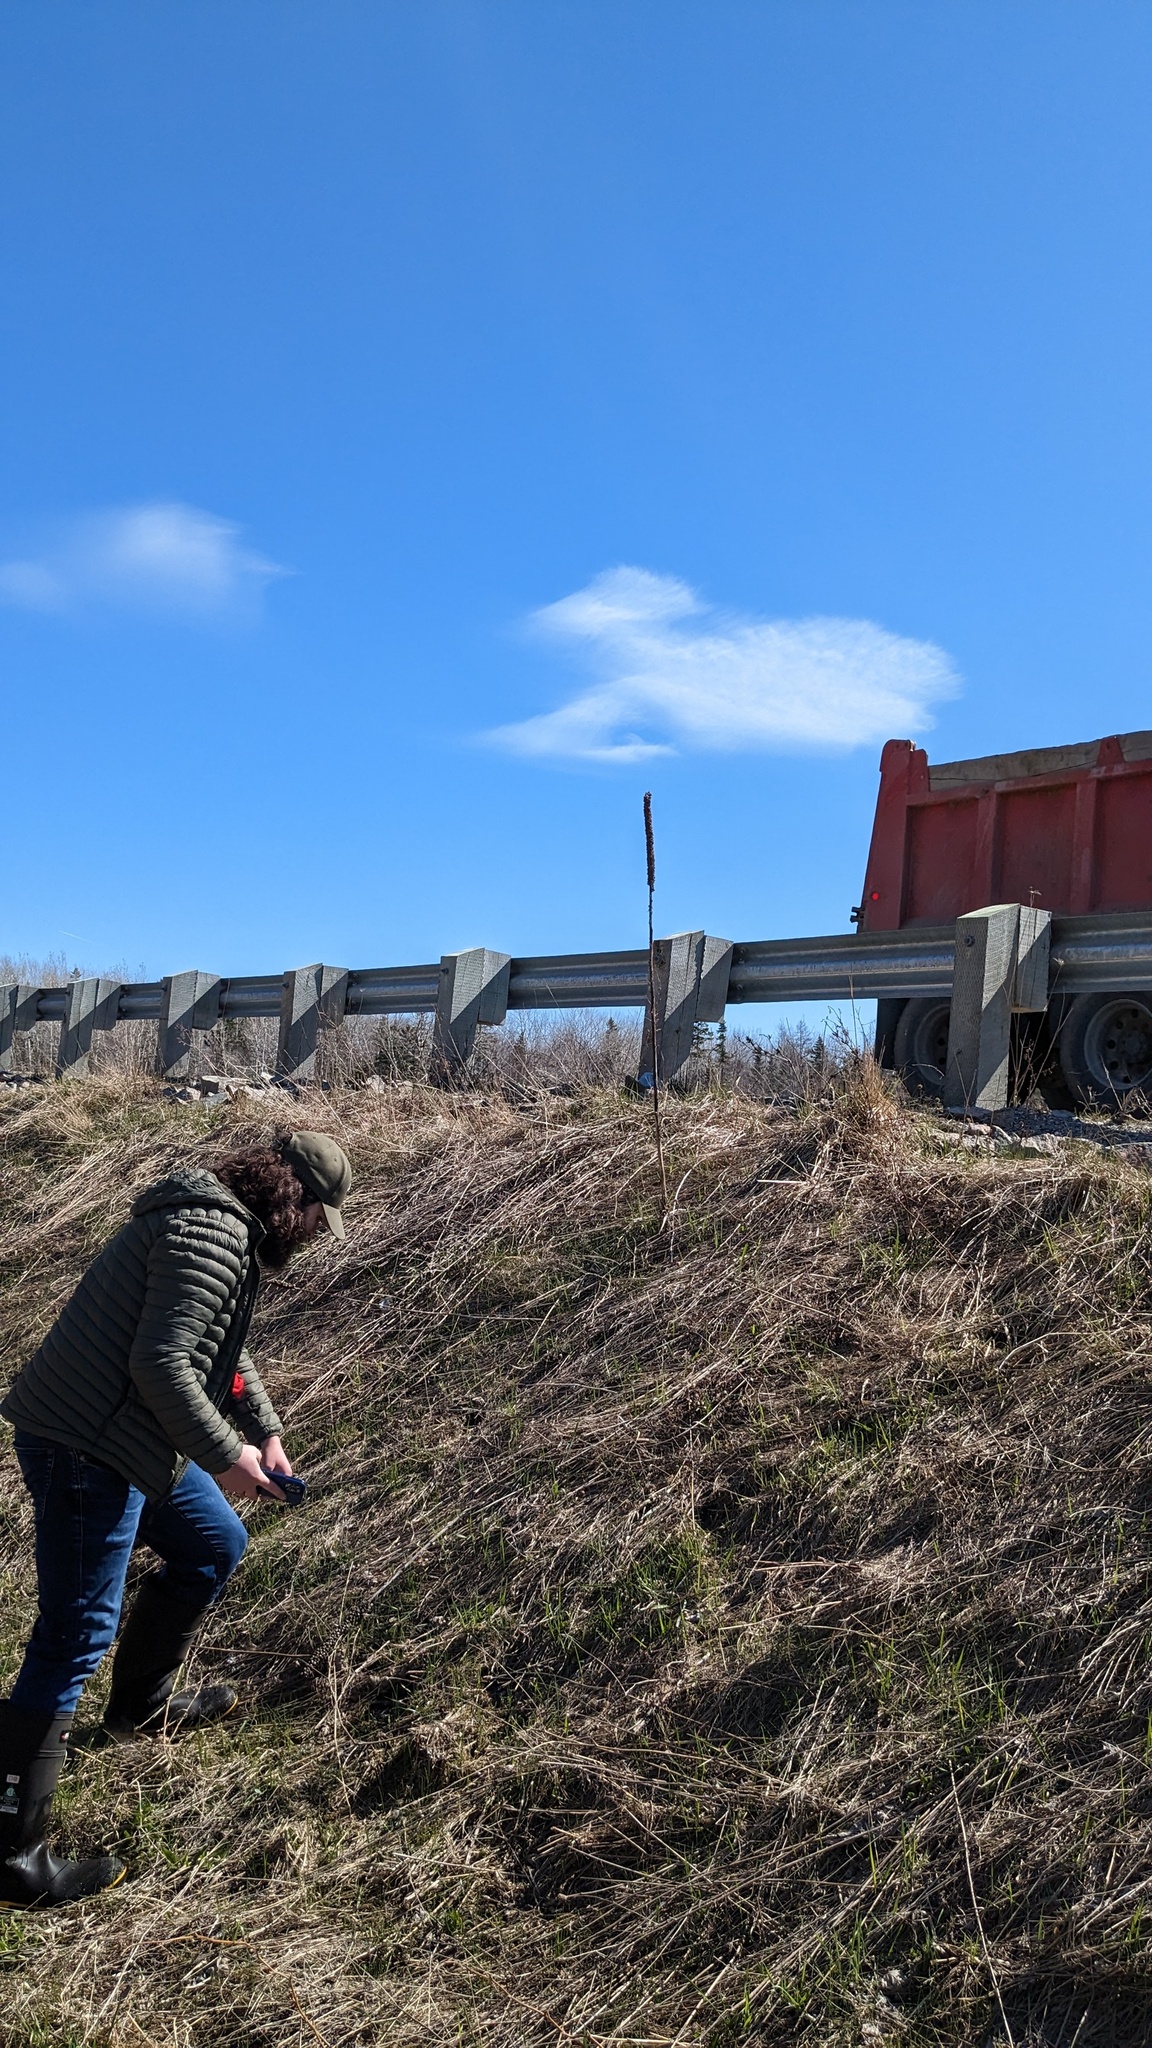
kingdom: Plantae
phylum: Tracheophyta
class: Magnoliopsida
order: Lamiales
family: Scrophulariaceae
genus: Verbascum
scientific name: Verbascum thapsus
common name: Common mullein
